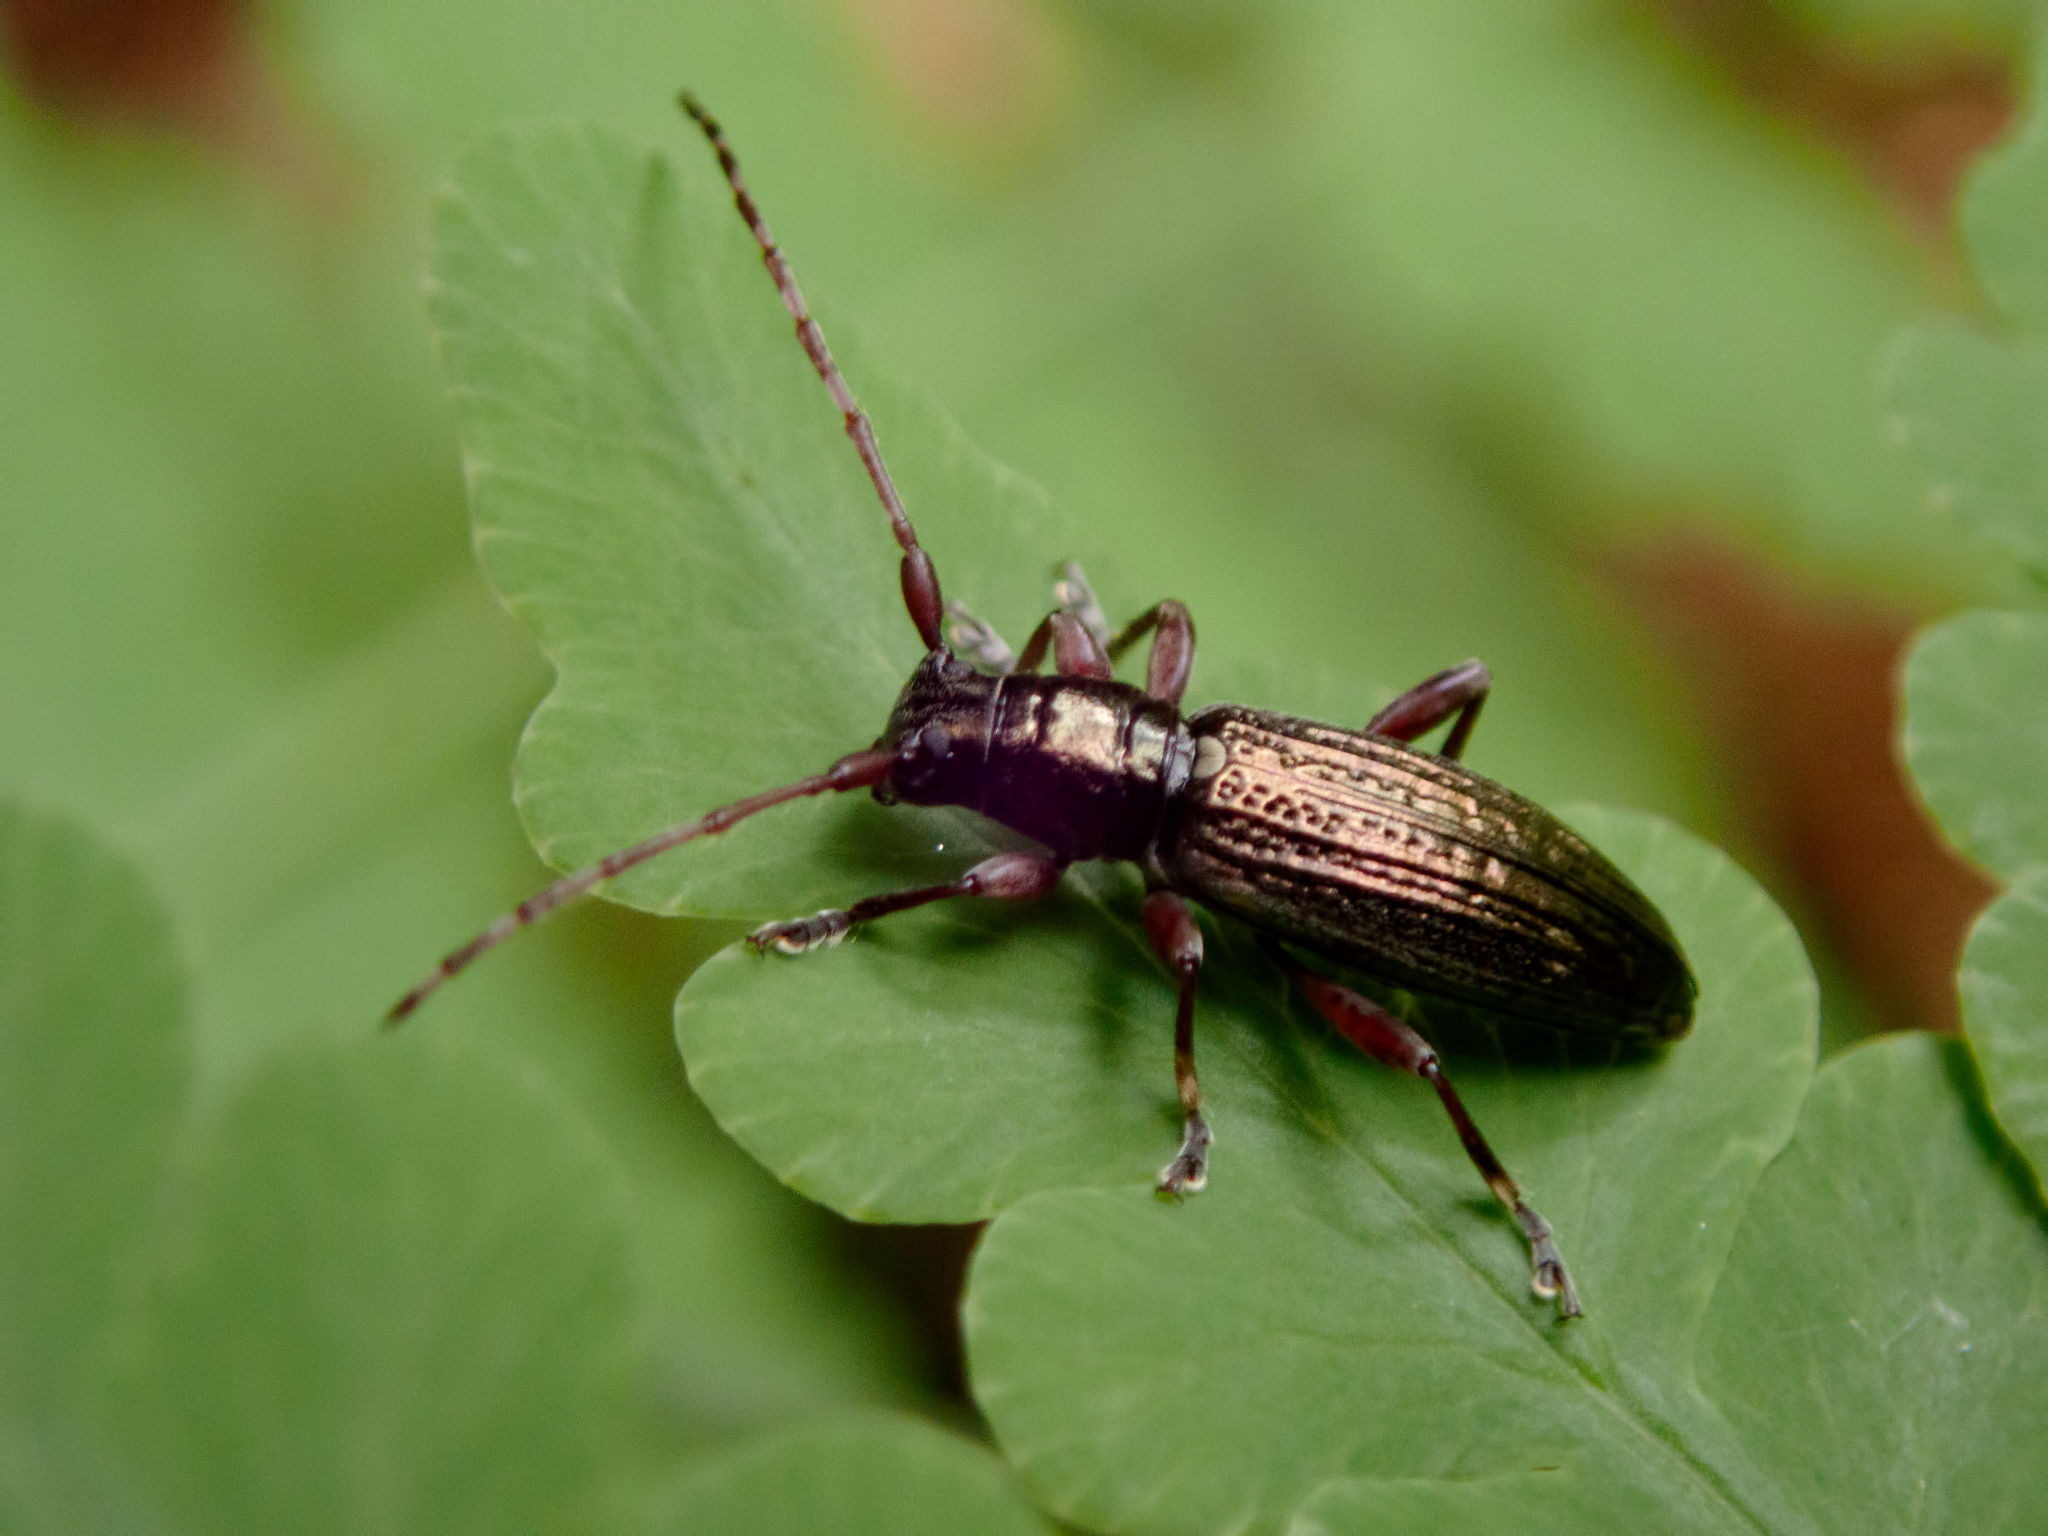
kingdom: Animalia
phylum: Arthropoda
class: Insecta
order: Coleoptera
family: Cerambycidae
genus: Xylotoles
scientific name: Xylotoles traversii
